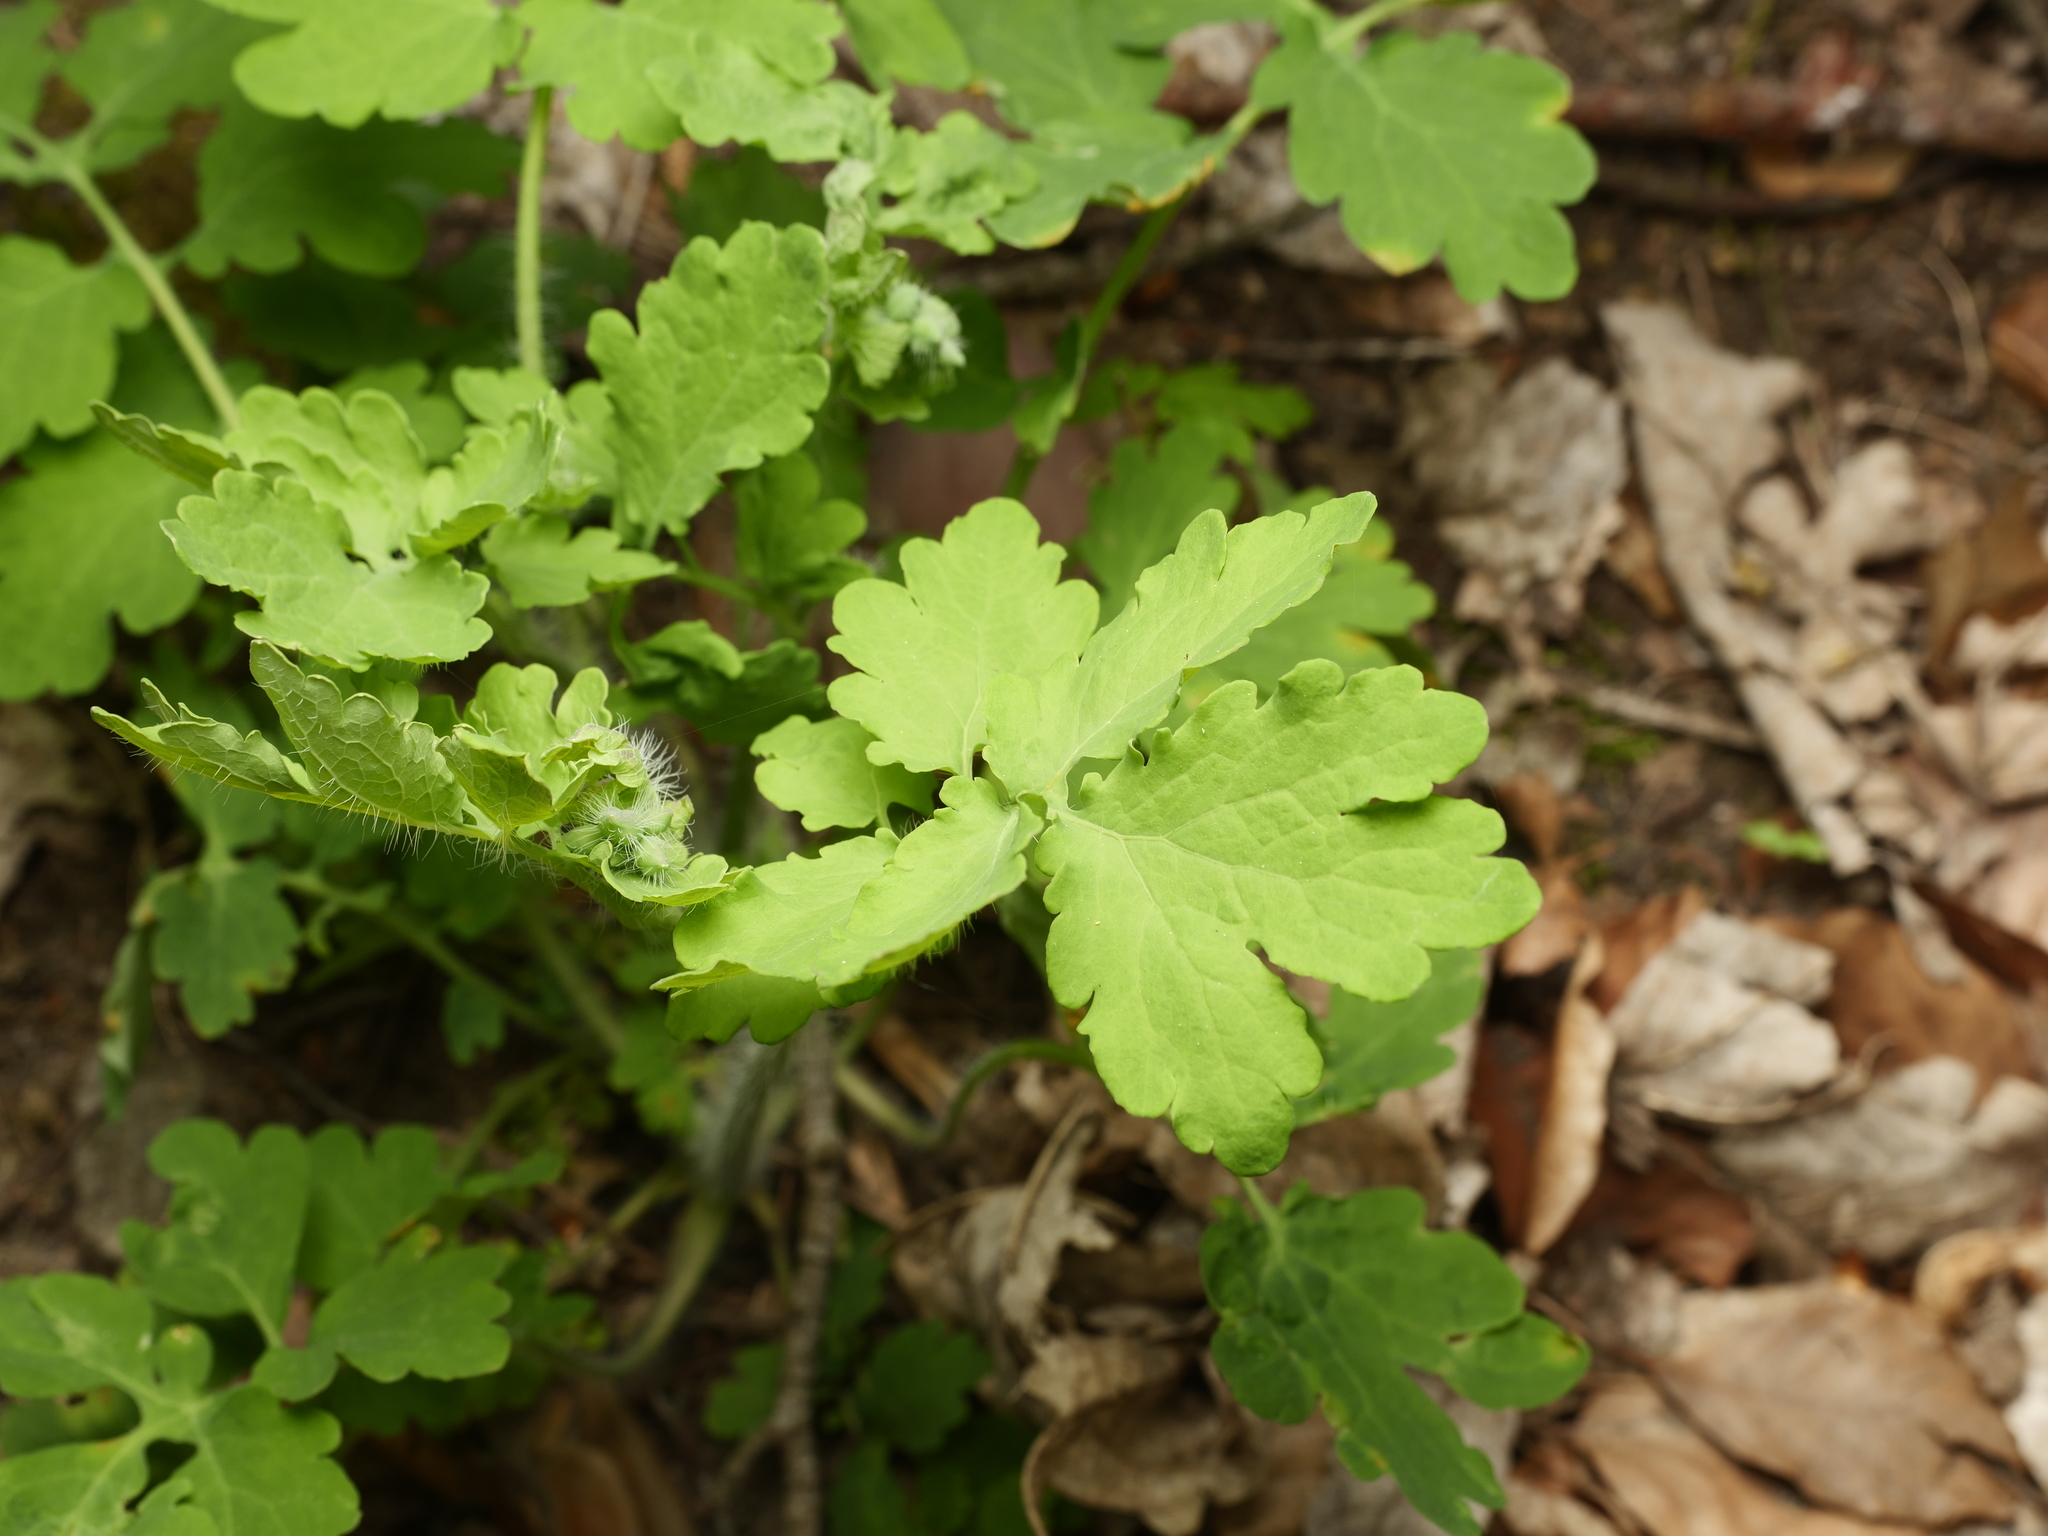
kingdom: Plantae
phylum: Tracheophyta
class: Magnoliopsida
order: Ranunculales
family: Papaveraceae
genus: Chelidonium
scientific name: Chelidonium majus
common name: Greater celandine
